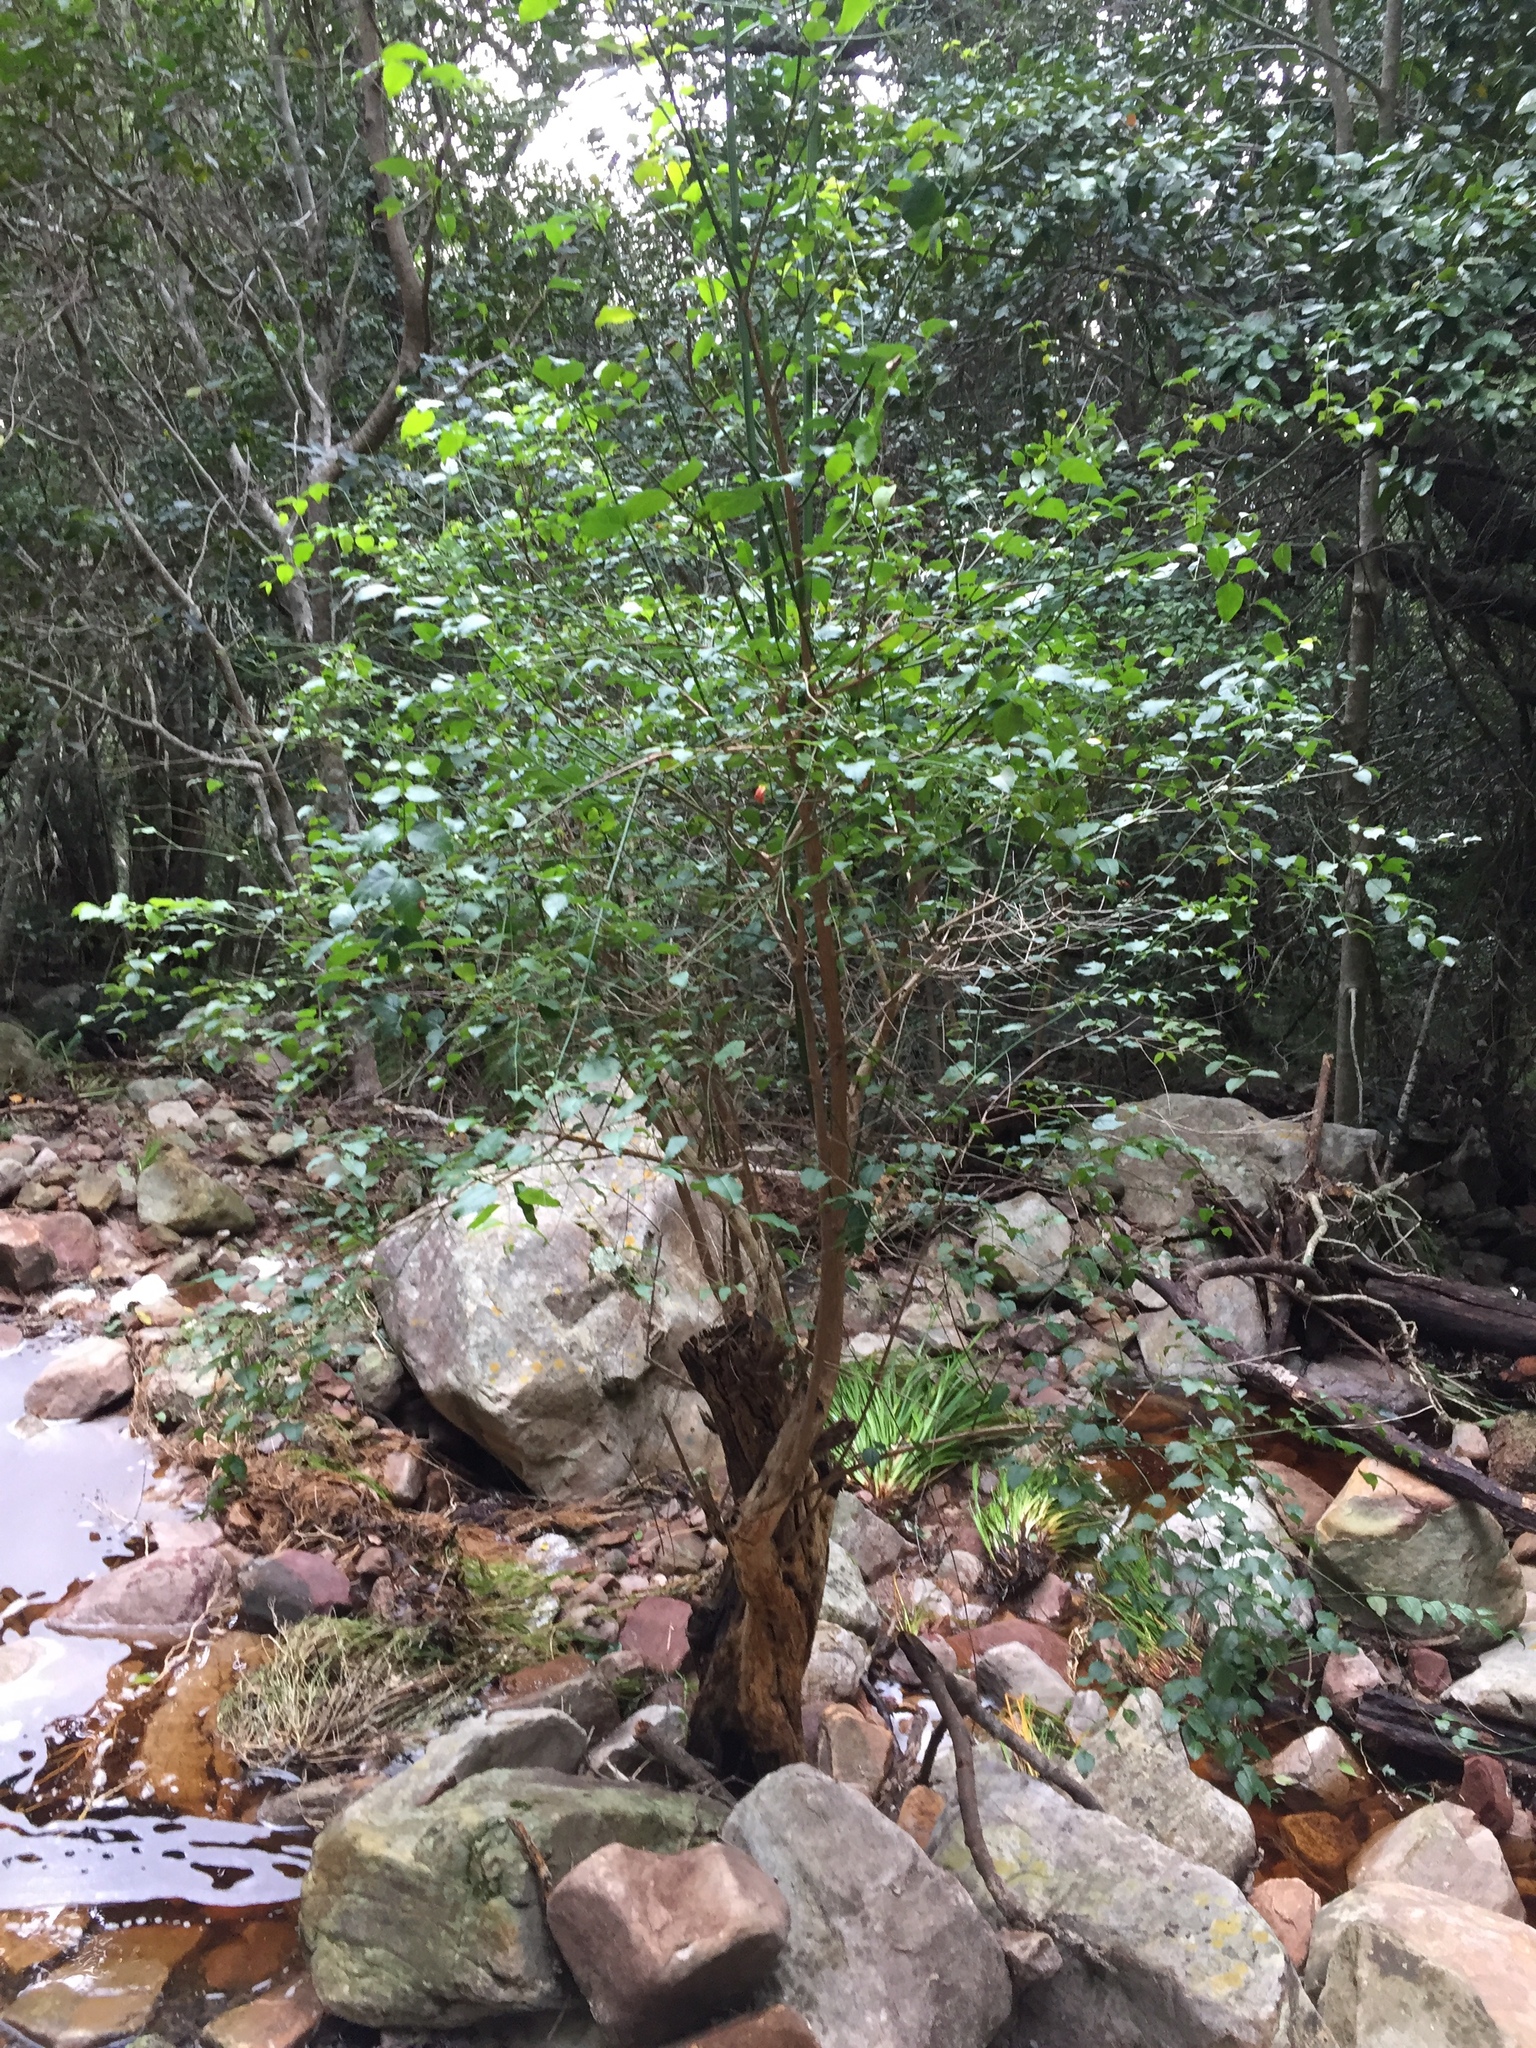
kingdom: Plantae
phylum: Tracheophyta
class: Magnoliopsida
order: Lamiales
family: Stilbaceae
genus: Halleria
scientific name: Halleria lucida
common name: Tree fuschia
